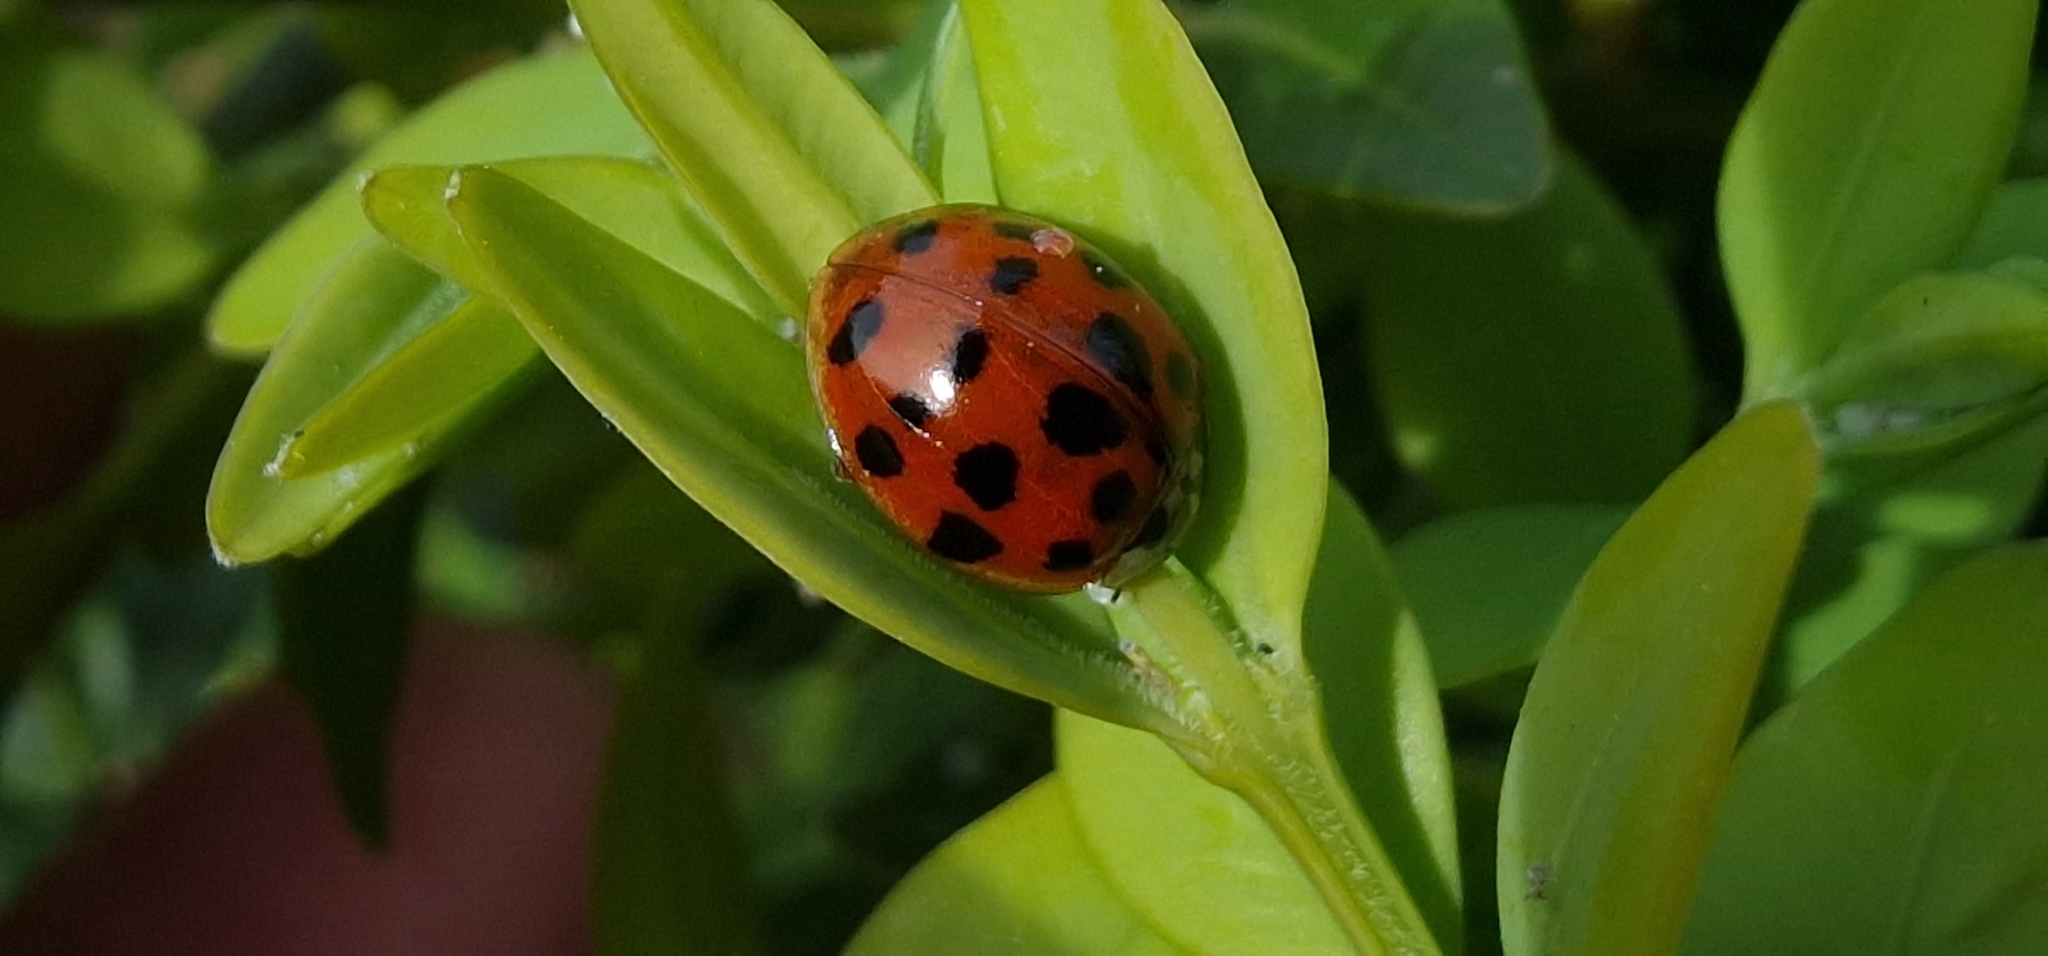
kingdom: Animalia
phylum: Arthropoda
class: Insecta
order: Coleoptera
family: Coccinellidae
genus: Harmonia
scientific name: Harmonia axyridis
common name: Harlequin ladybird
